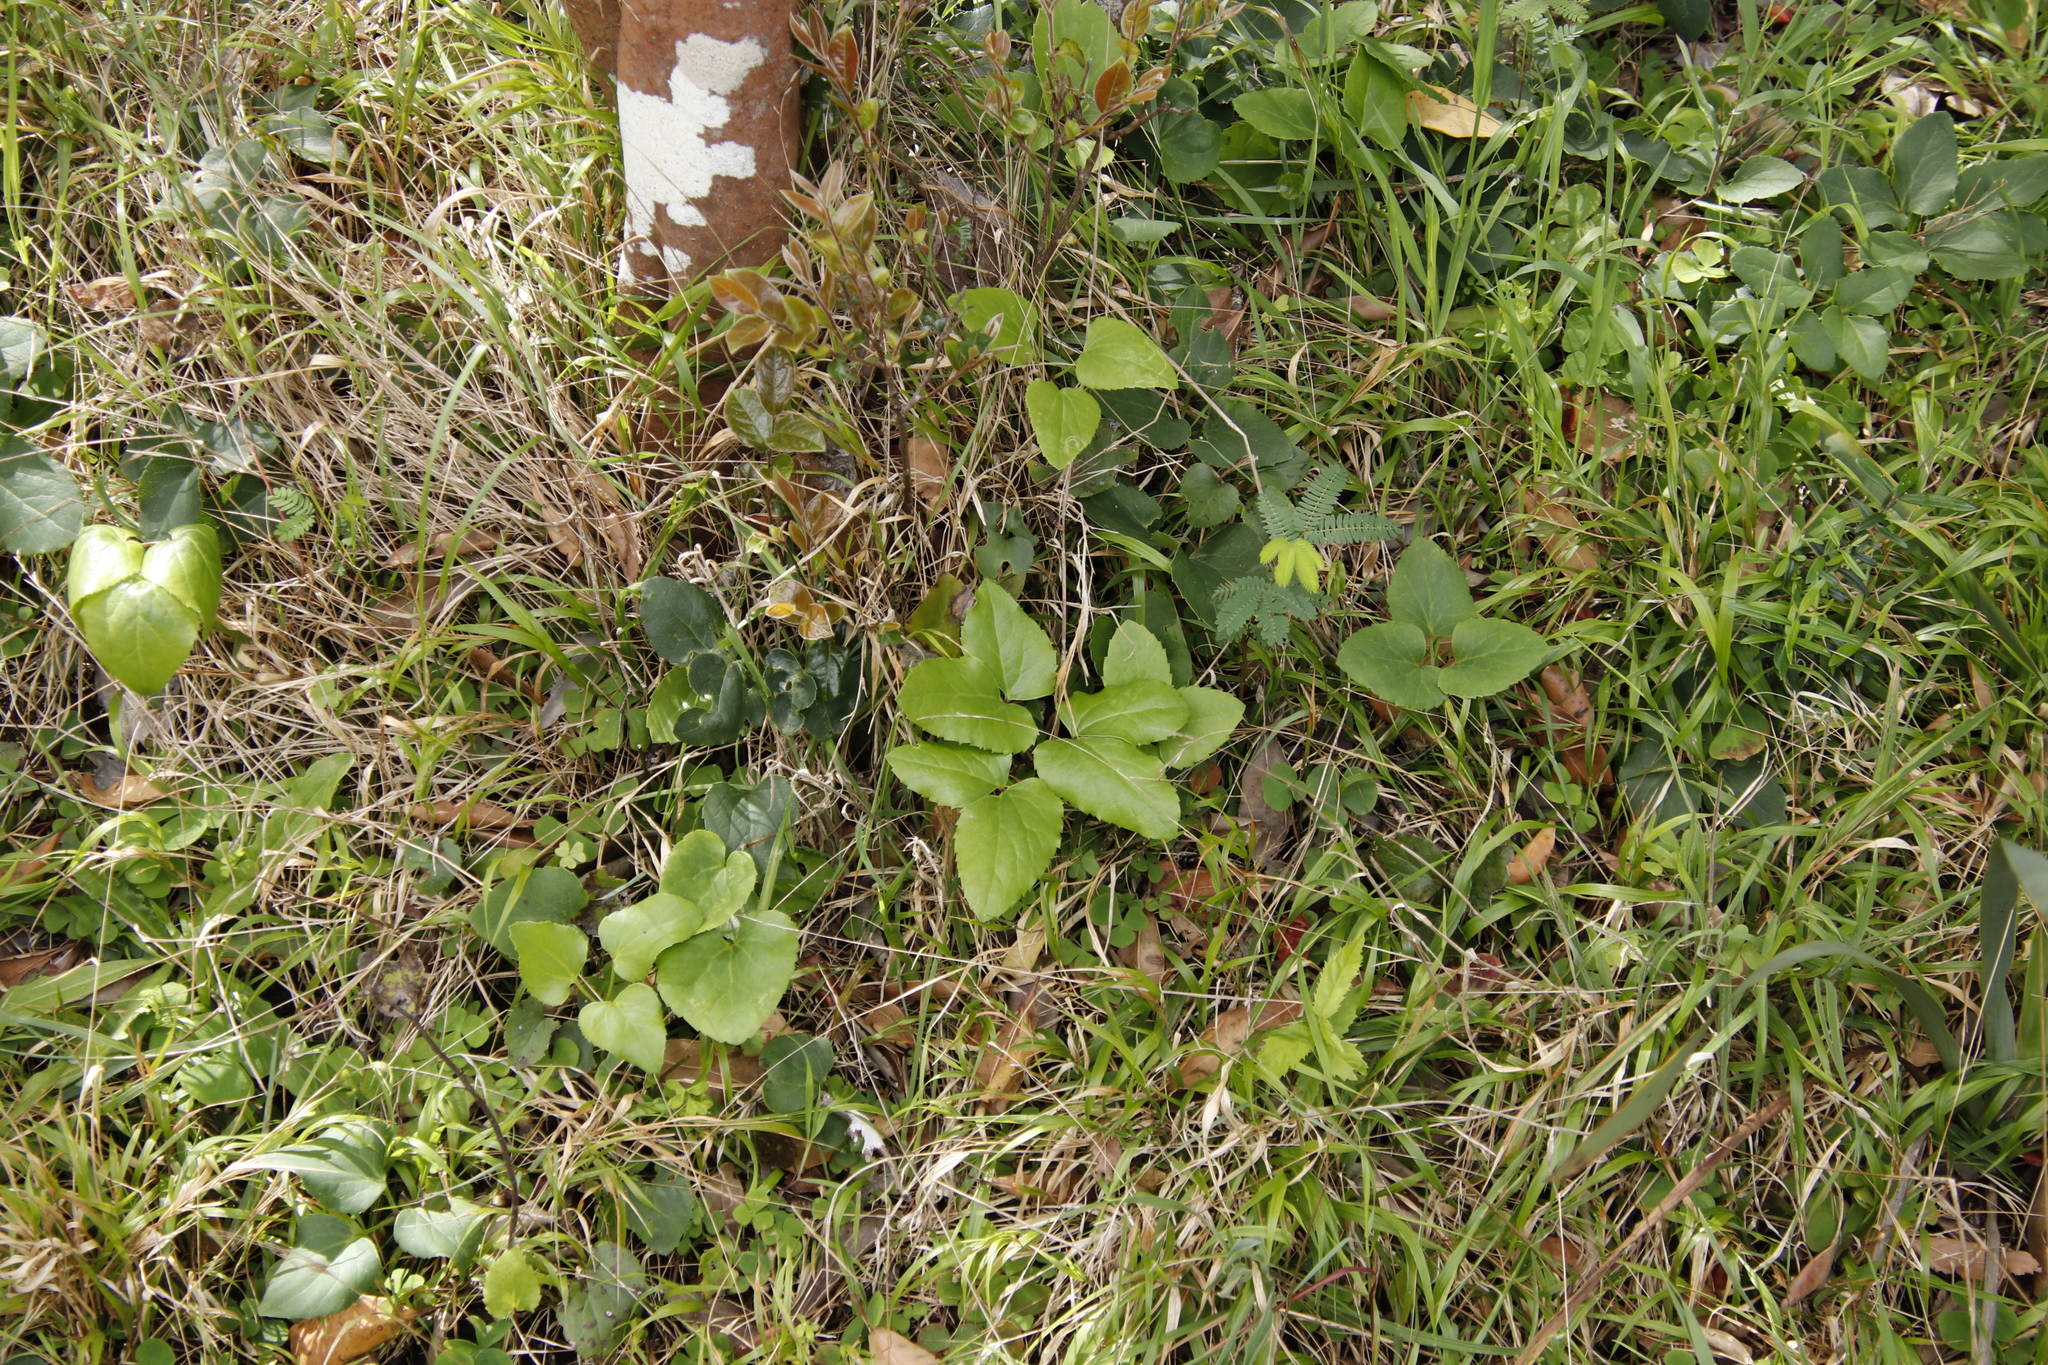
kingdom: Plantae
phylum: Tracheophyta
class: Magnoliopsida
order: Ranunculales
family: Ranunculaceae
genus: Knowltonia
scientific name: Knowltonia vesicatoria
